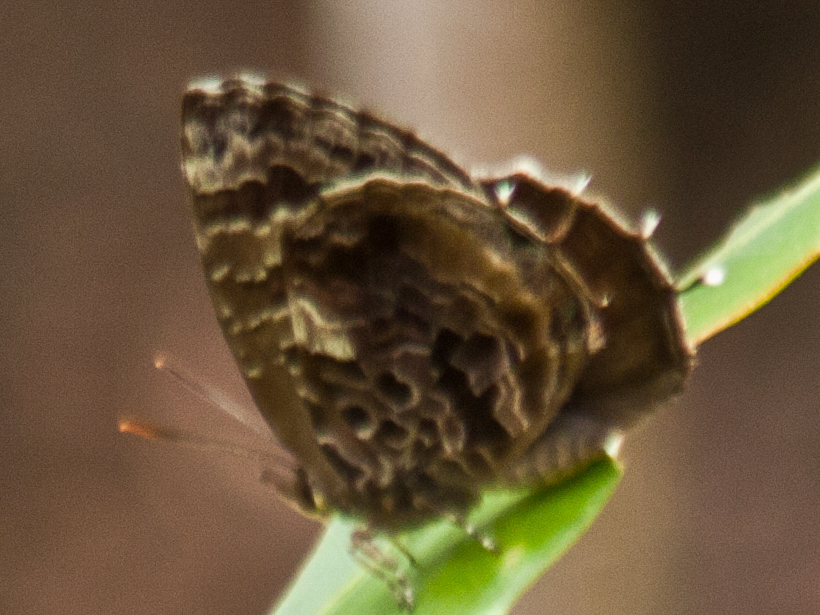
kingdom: Animalia
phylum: Arthropoda
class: Insecta
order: Lepidoptera
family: Lycaenidae
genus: Arhopala
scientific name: Arhopala abseus
